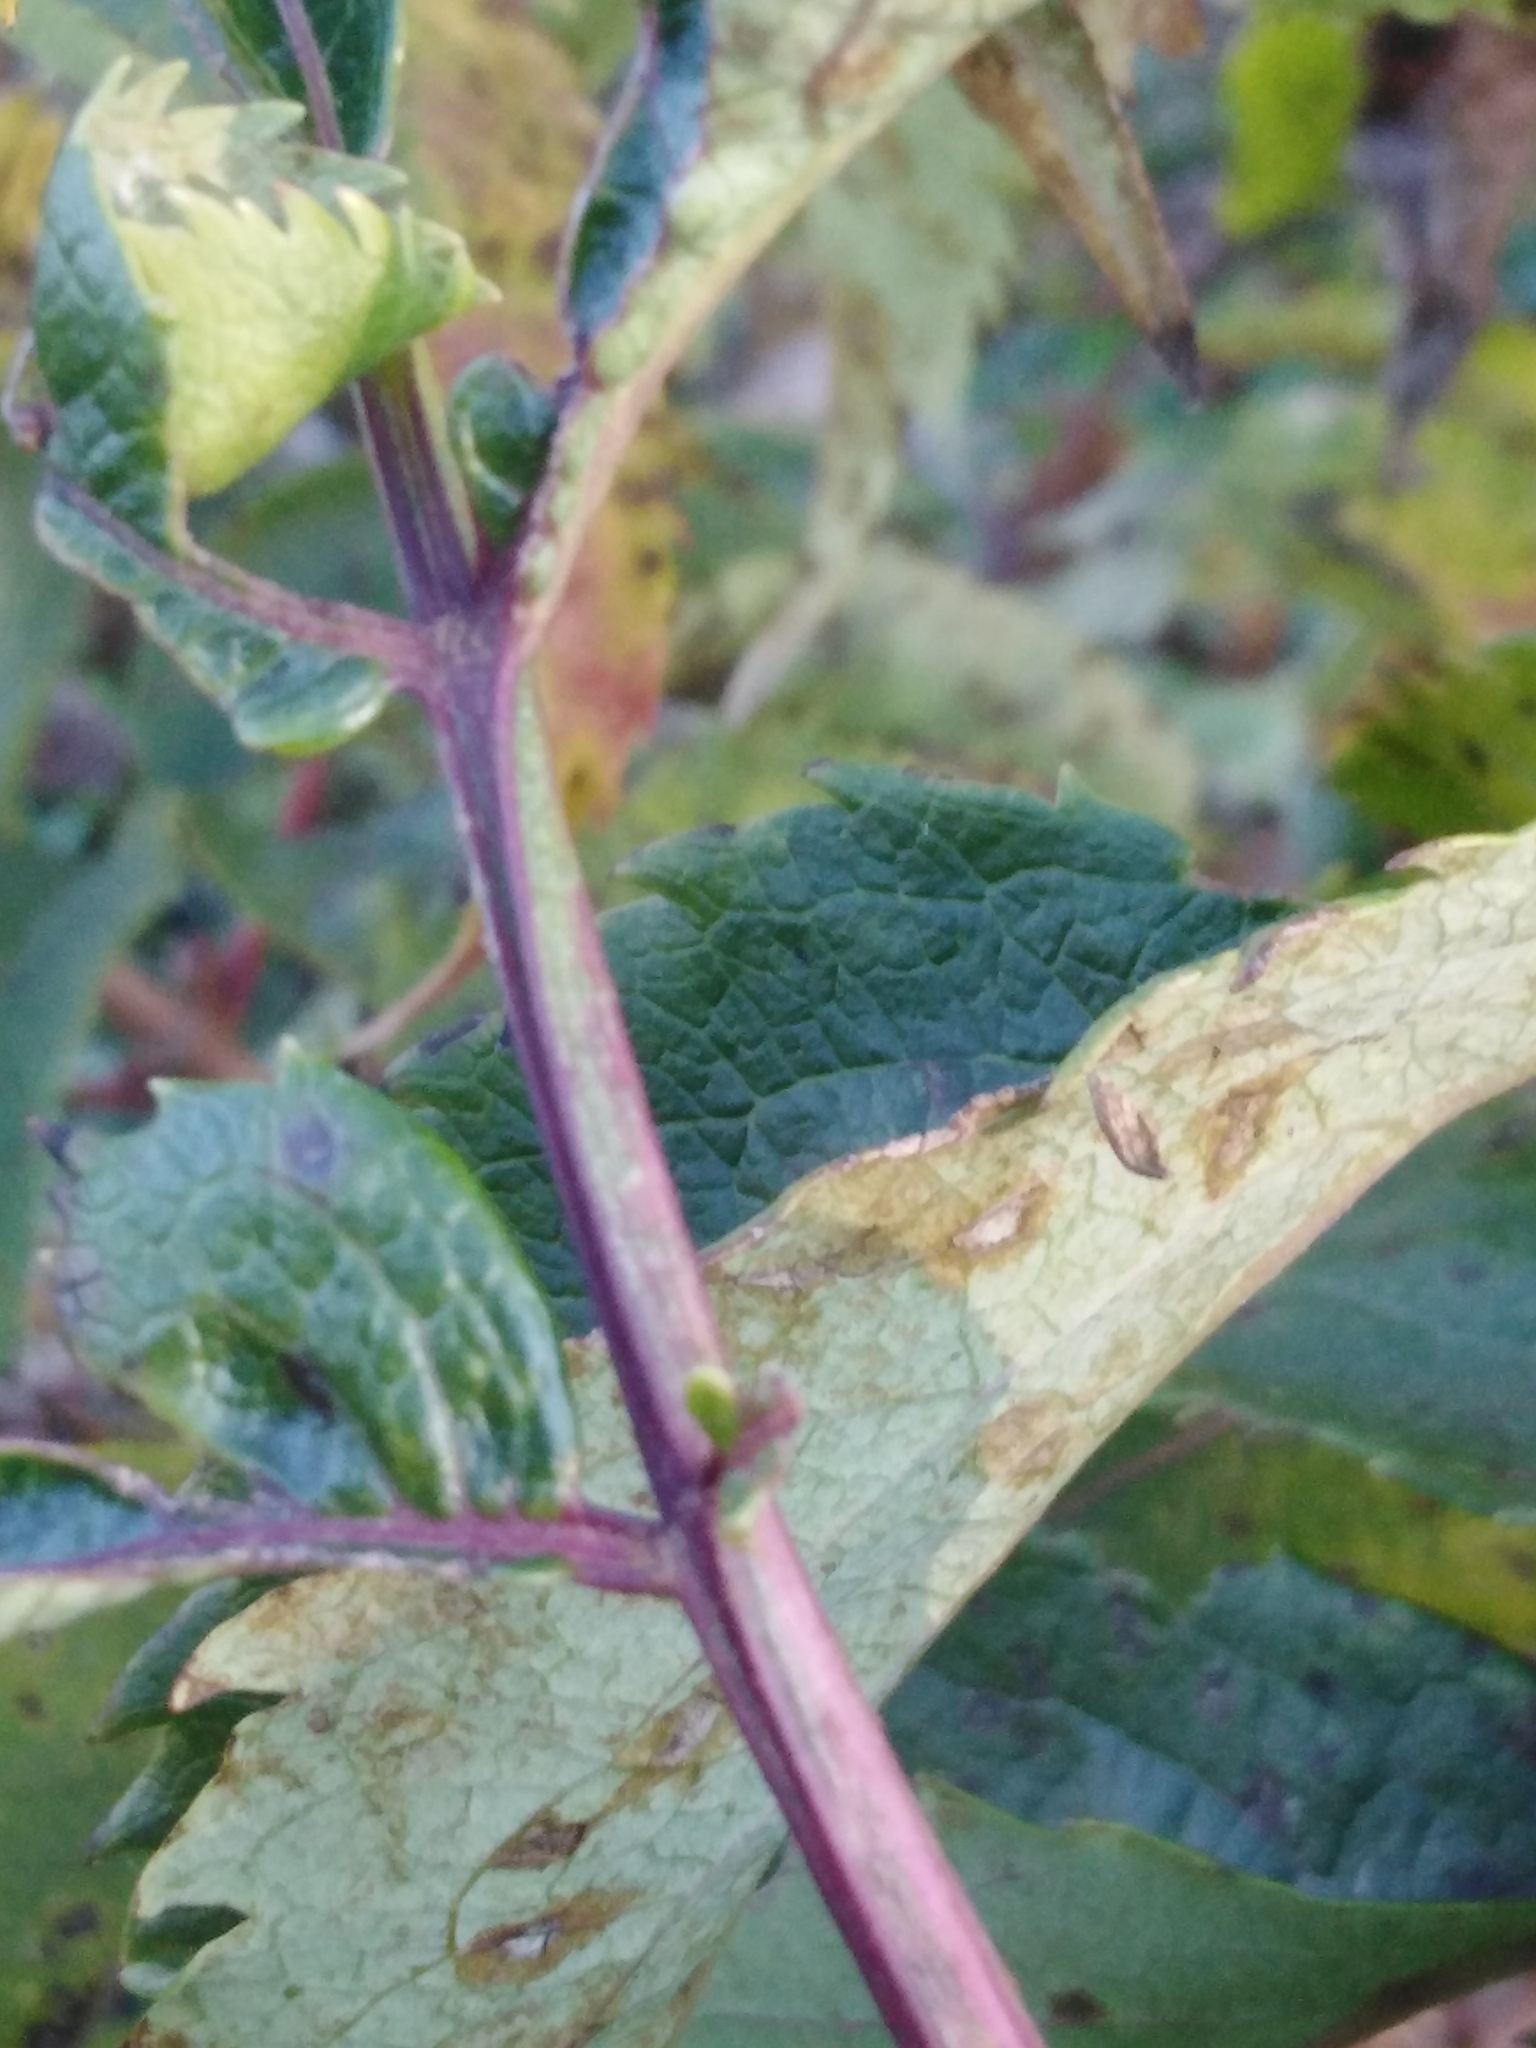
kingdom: Plantae
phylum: Tracheophyta
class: Magnoliopsida
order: Dipsacales
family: Viburnaceae
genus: Sambucus
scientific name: Sambucus racemosa
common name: Red-berried elder
